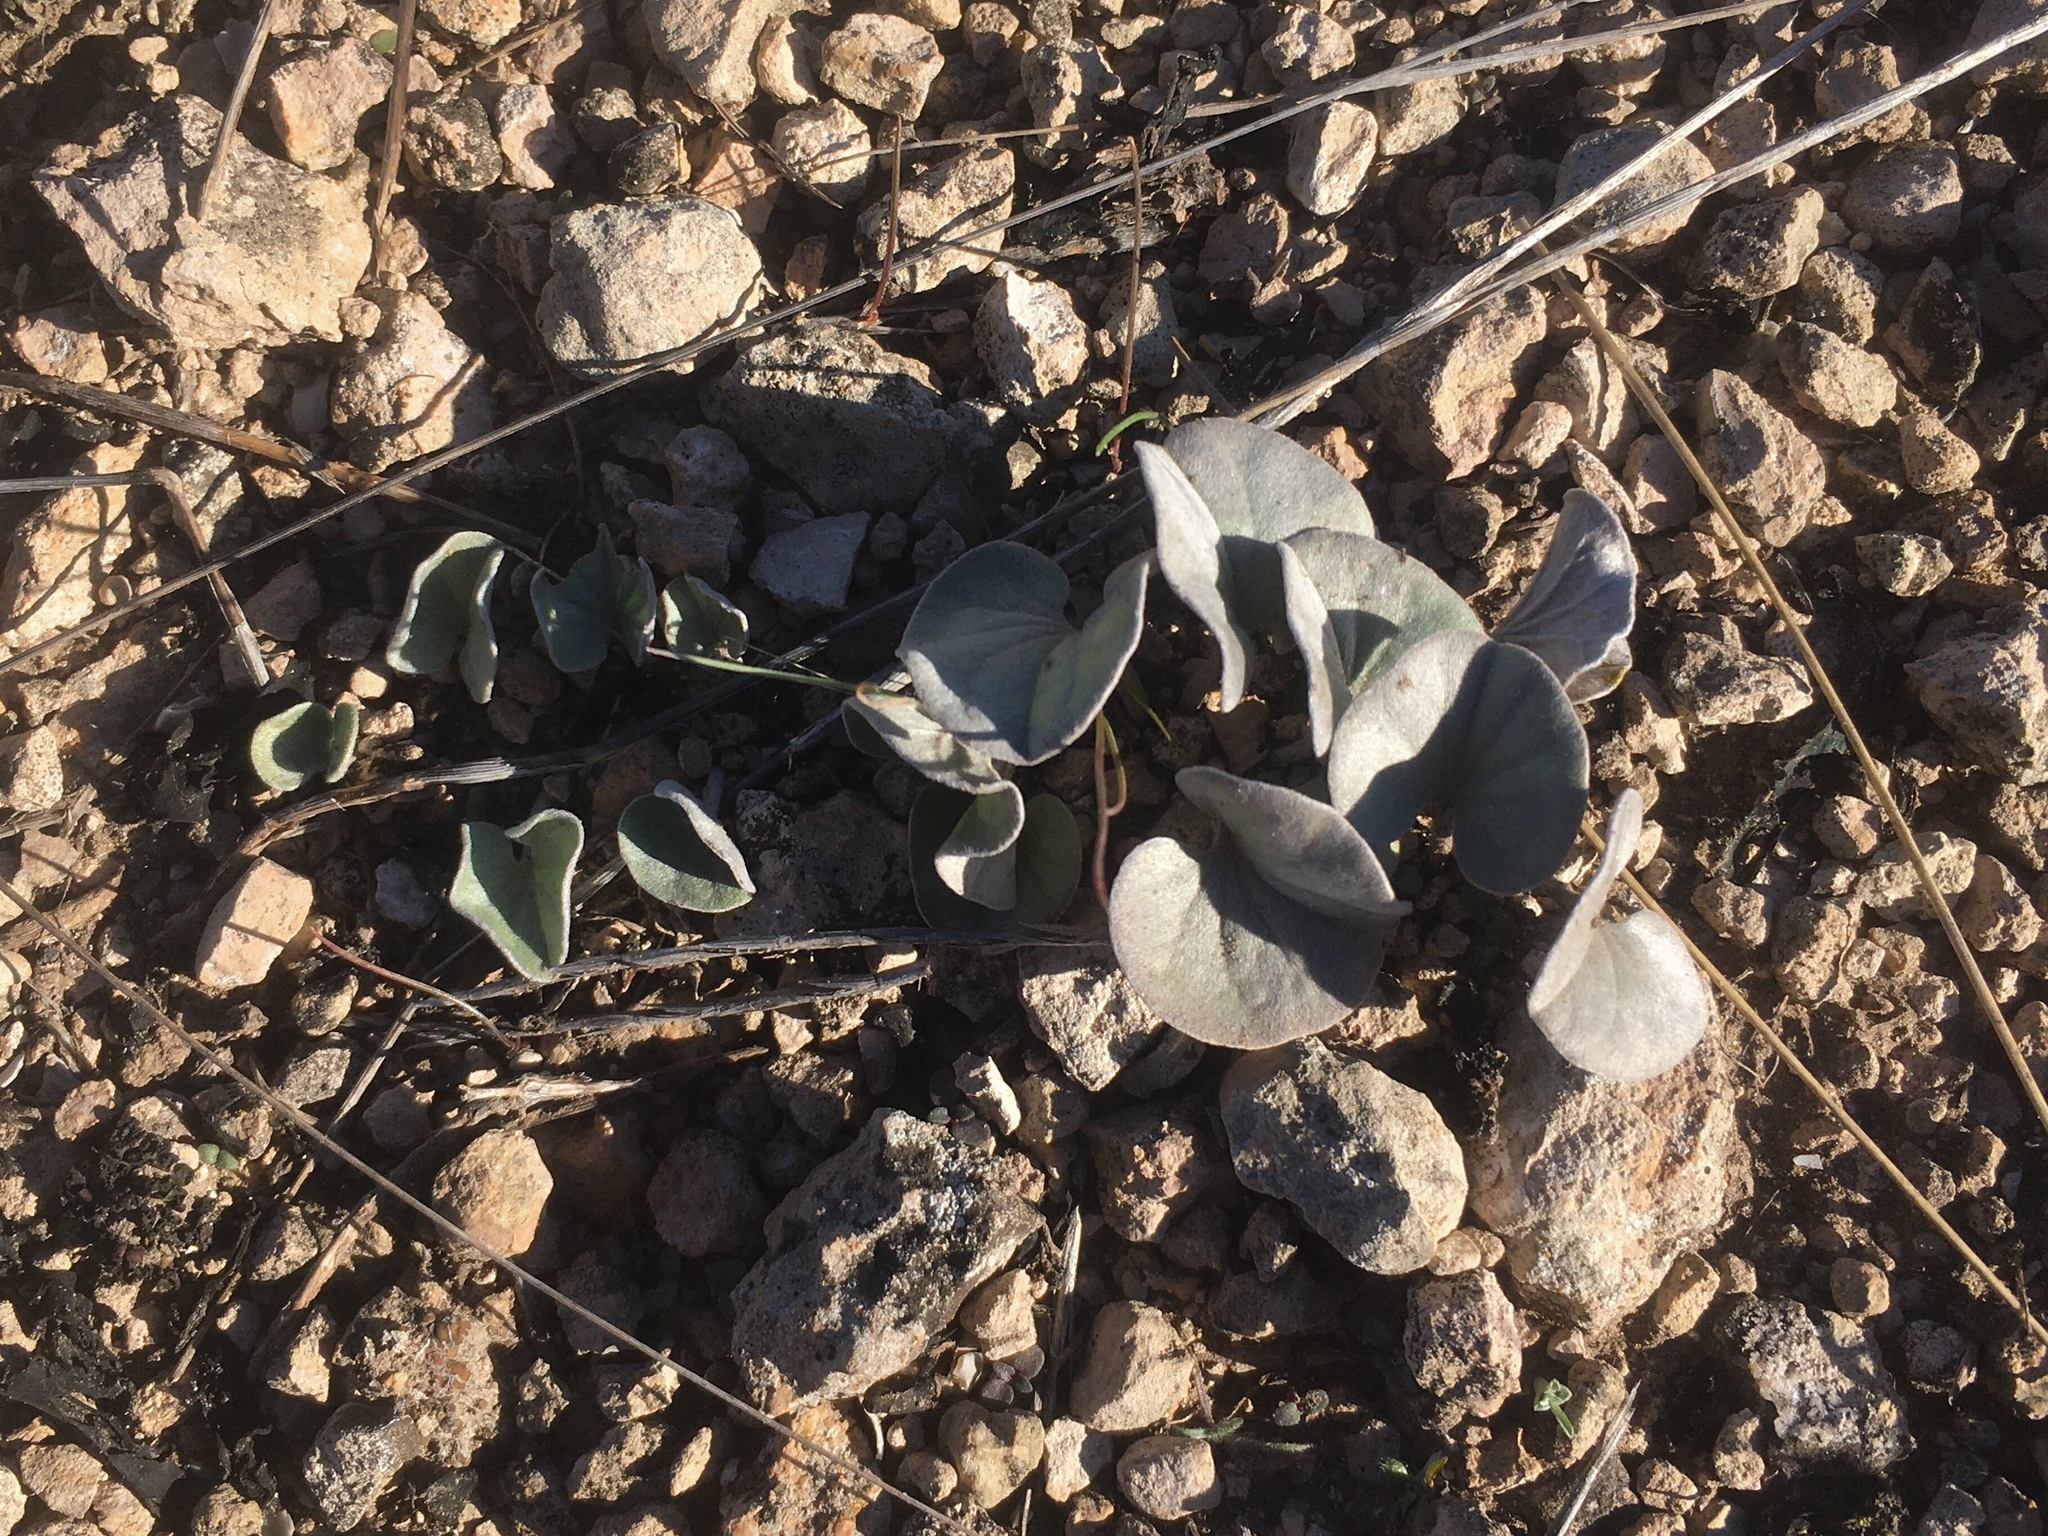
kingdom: Plantae
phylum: Tracheophyta
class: Magnoliopsida
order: Solanales
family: Convolvulaceae
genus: Dichondra
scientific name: Dichondra sericea
